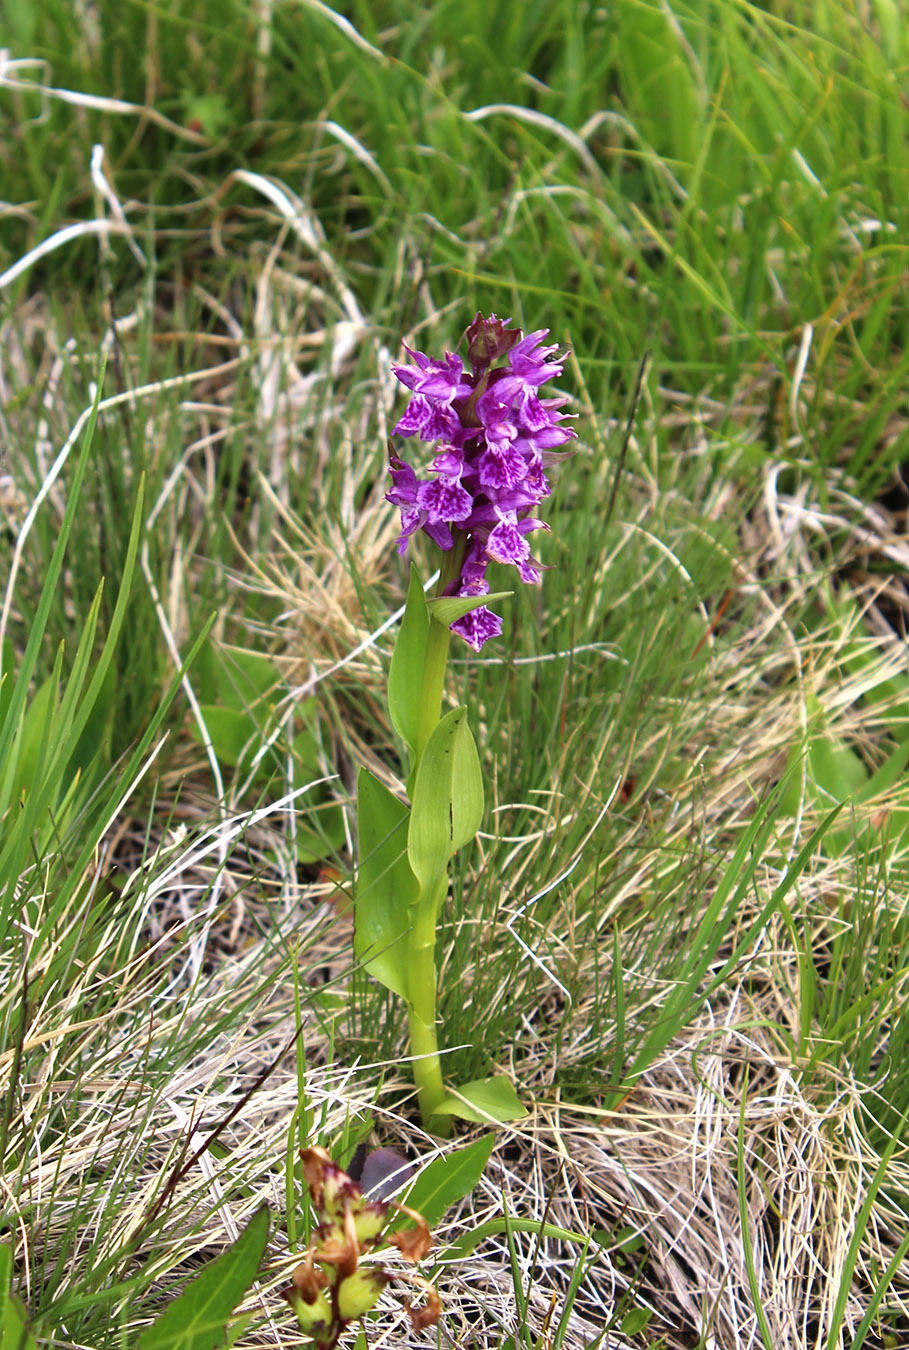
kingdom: Plantae
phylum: Tracheophyta
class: Liliopsida
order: Asparagales
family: Orchidaceae
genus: Dactylorhiza
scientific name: Dactylorhiza euxina
